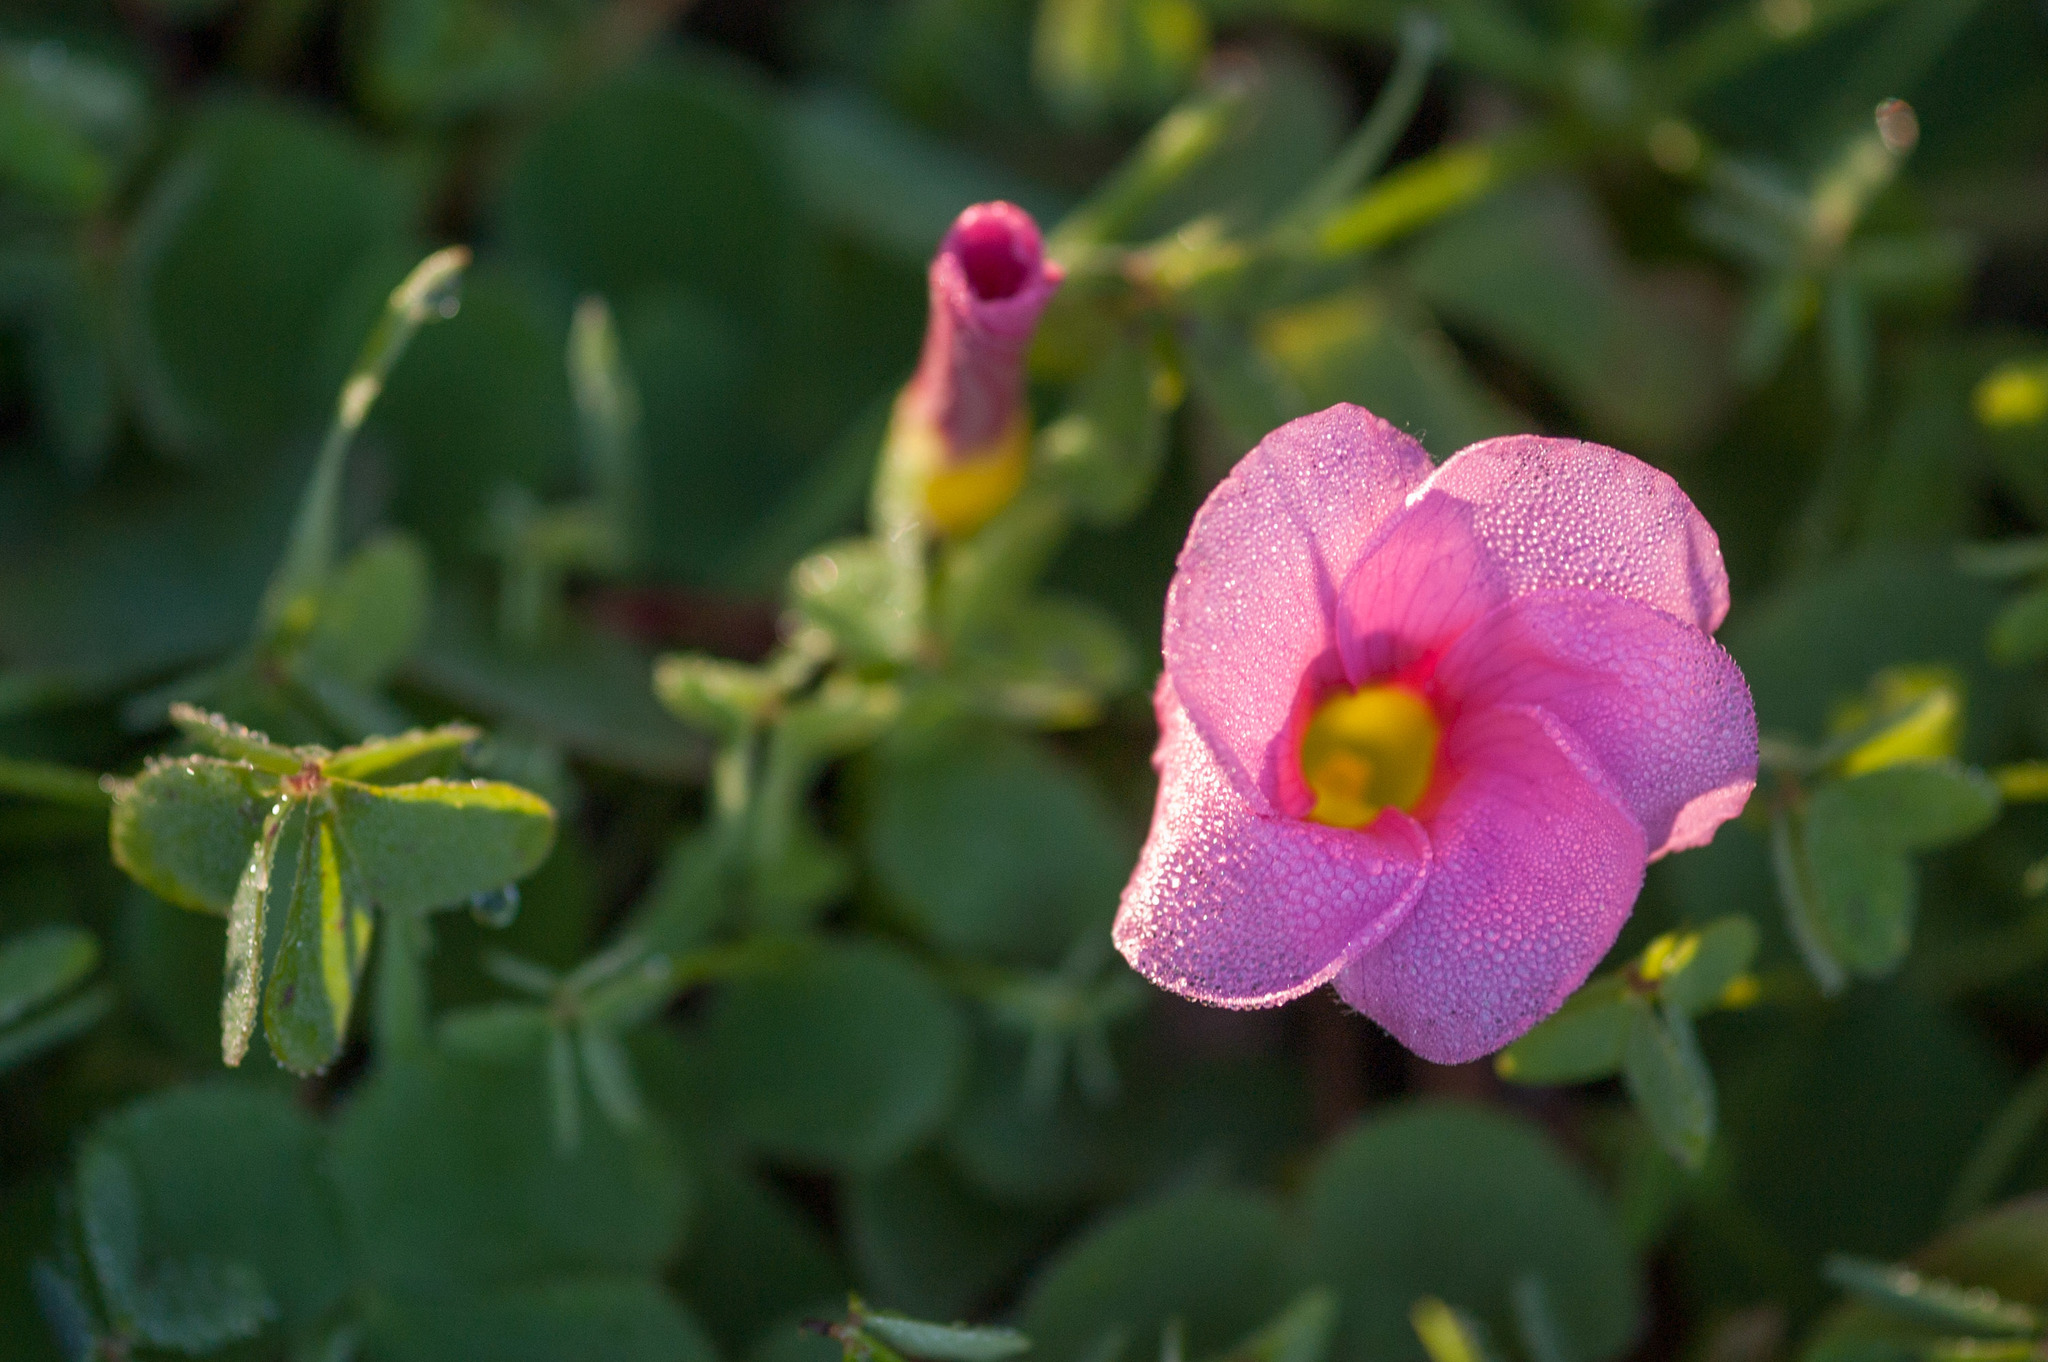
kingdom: Plantae
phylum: Tracheophyta
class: Magnoliopsida
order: Oxalidales
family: Oxalidaceae
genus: Oxalis
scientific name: Oxalis purpurea
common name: Purple woodsorrel
